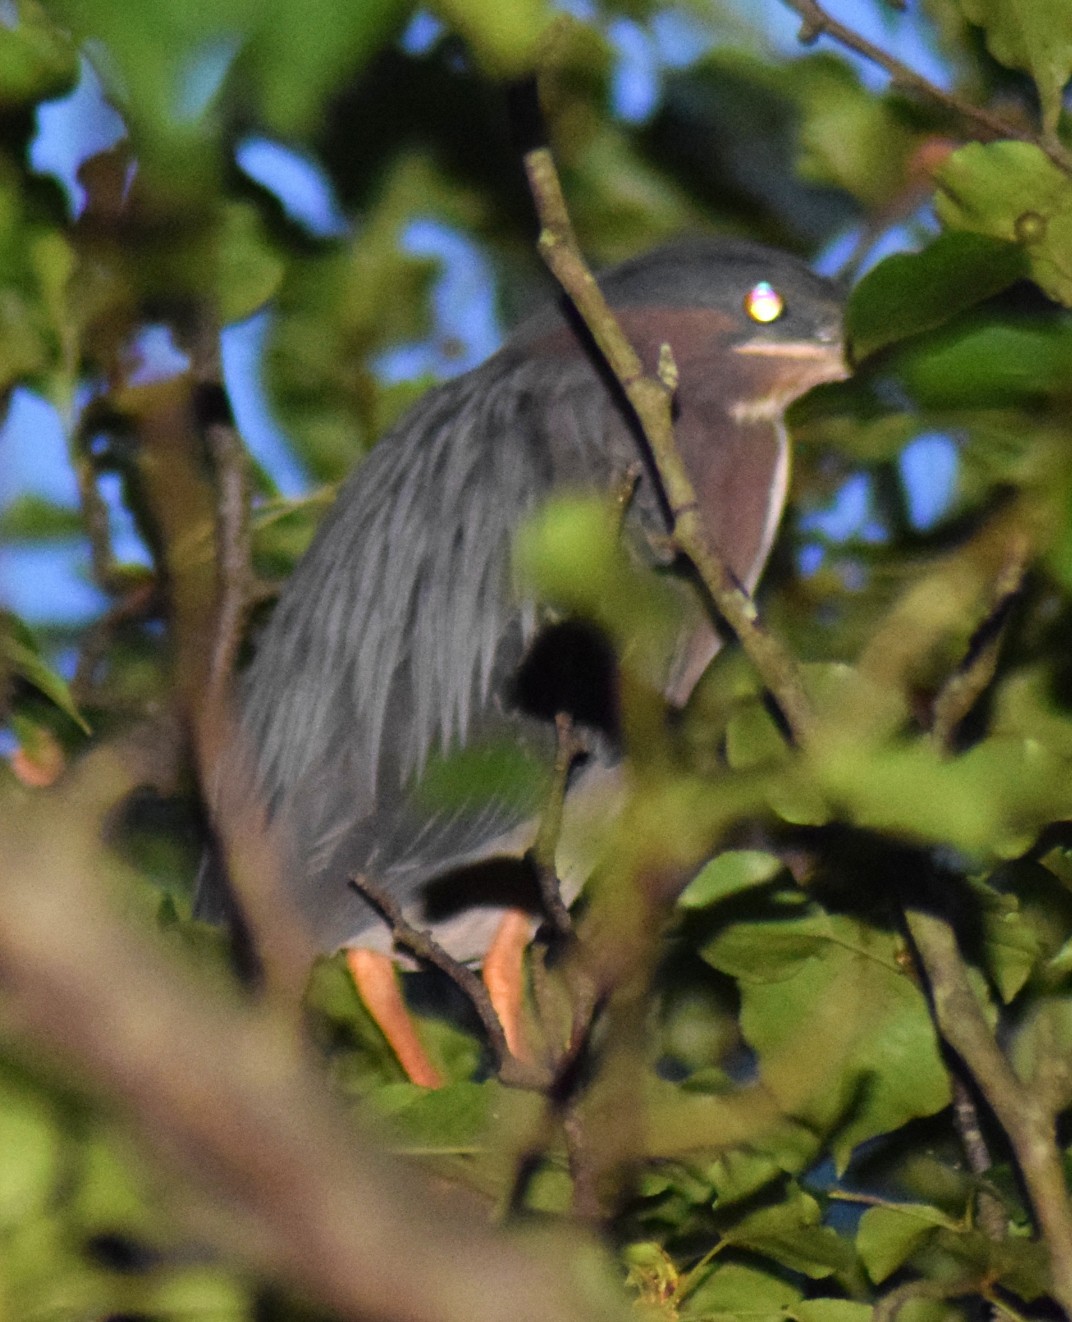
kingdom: Animalia
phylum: Chordata
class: Aves
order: Pelecaniformes
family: Ardeidae
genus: Butorides
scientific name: Butorides virescens
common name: Green heron
